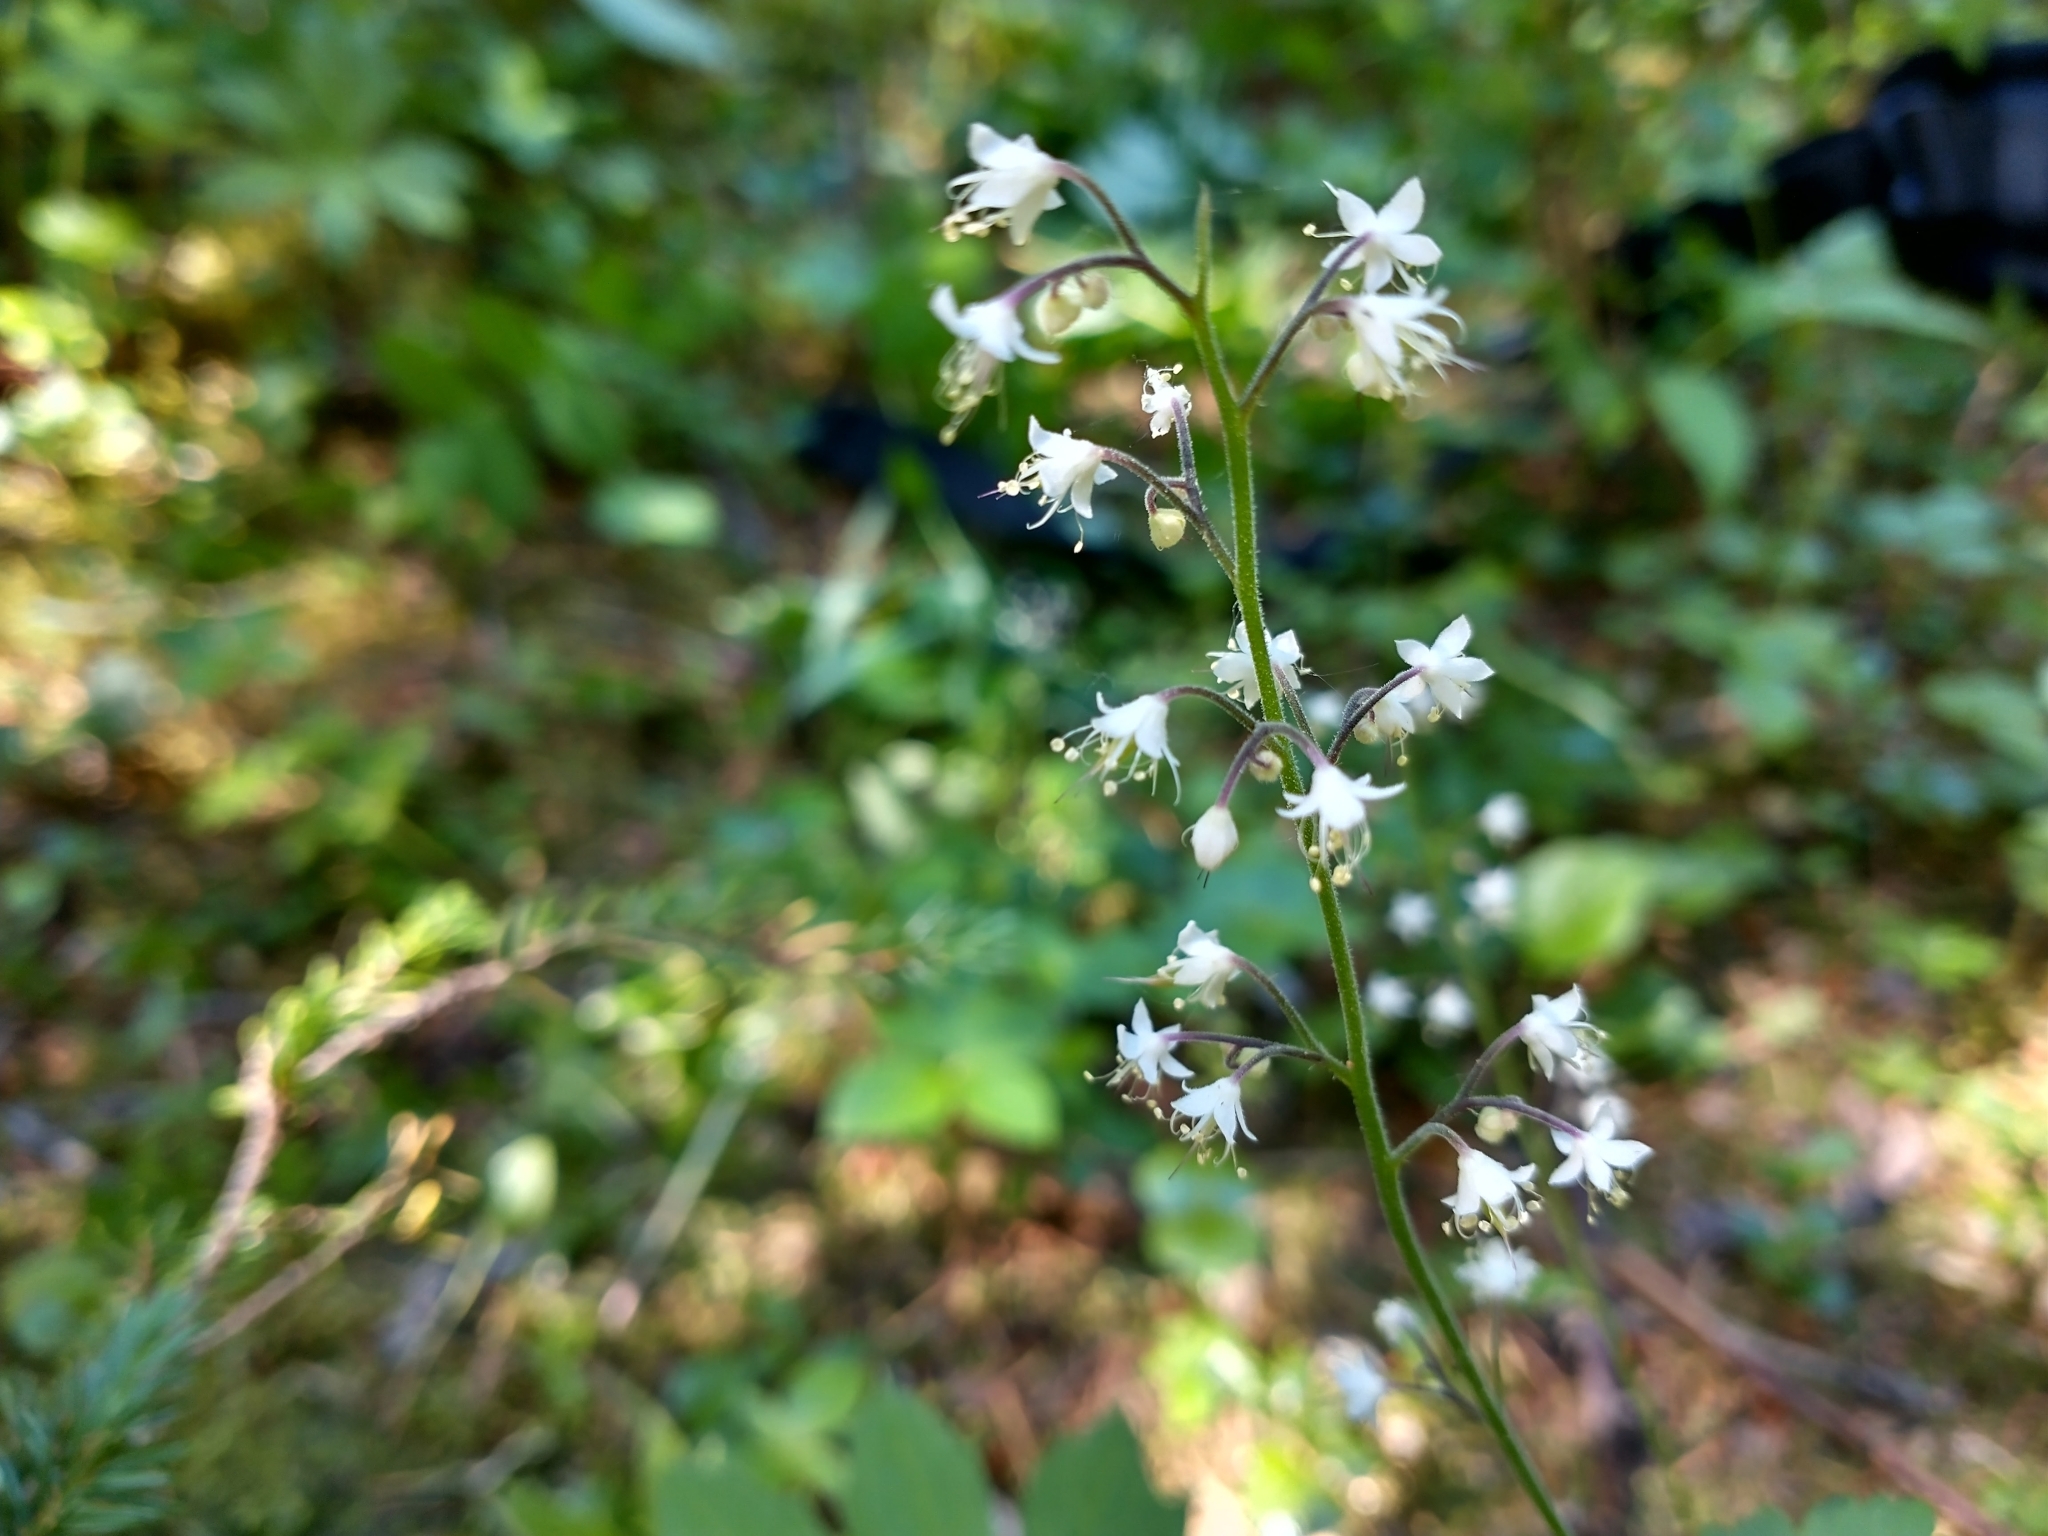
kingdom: Plantae
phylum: Tracheophyta
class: Magnoliopsida
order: Saxifragales
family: Saxifragaceae
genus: Tiarella
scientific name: Tiarella trifoliata
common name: Sugar-scoop
